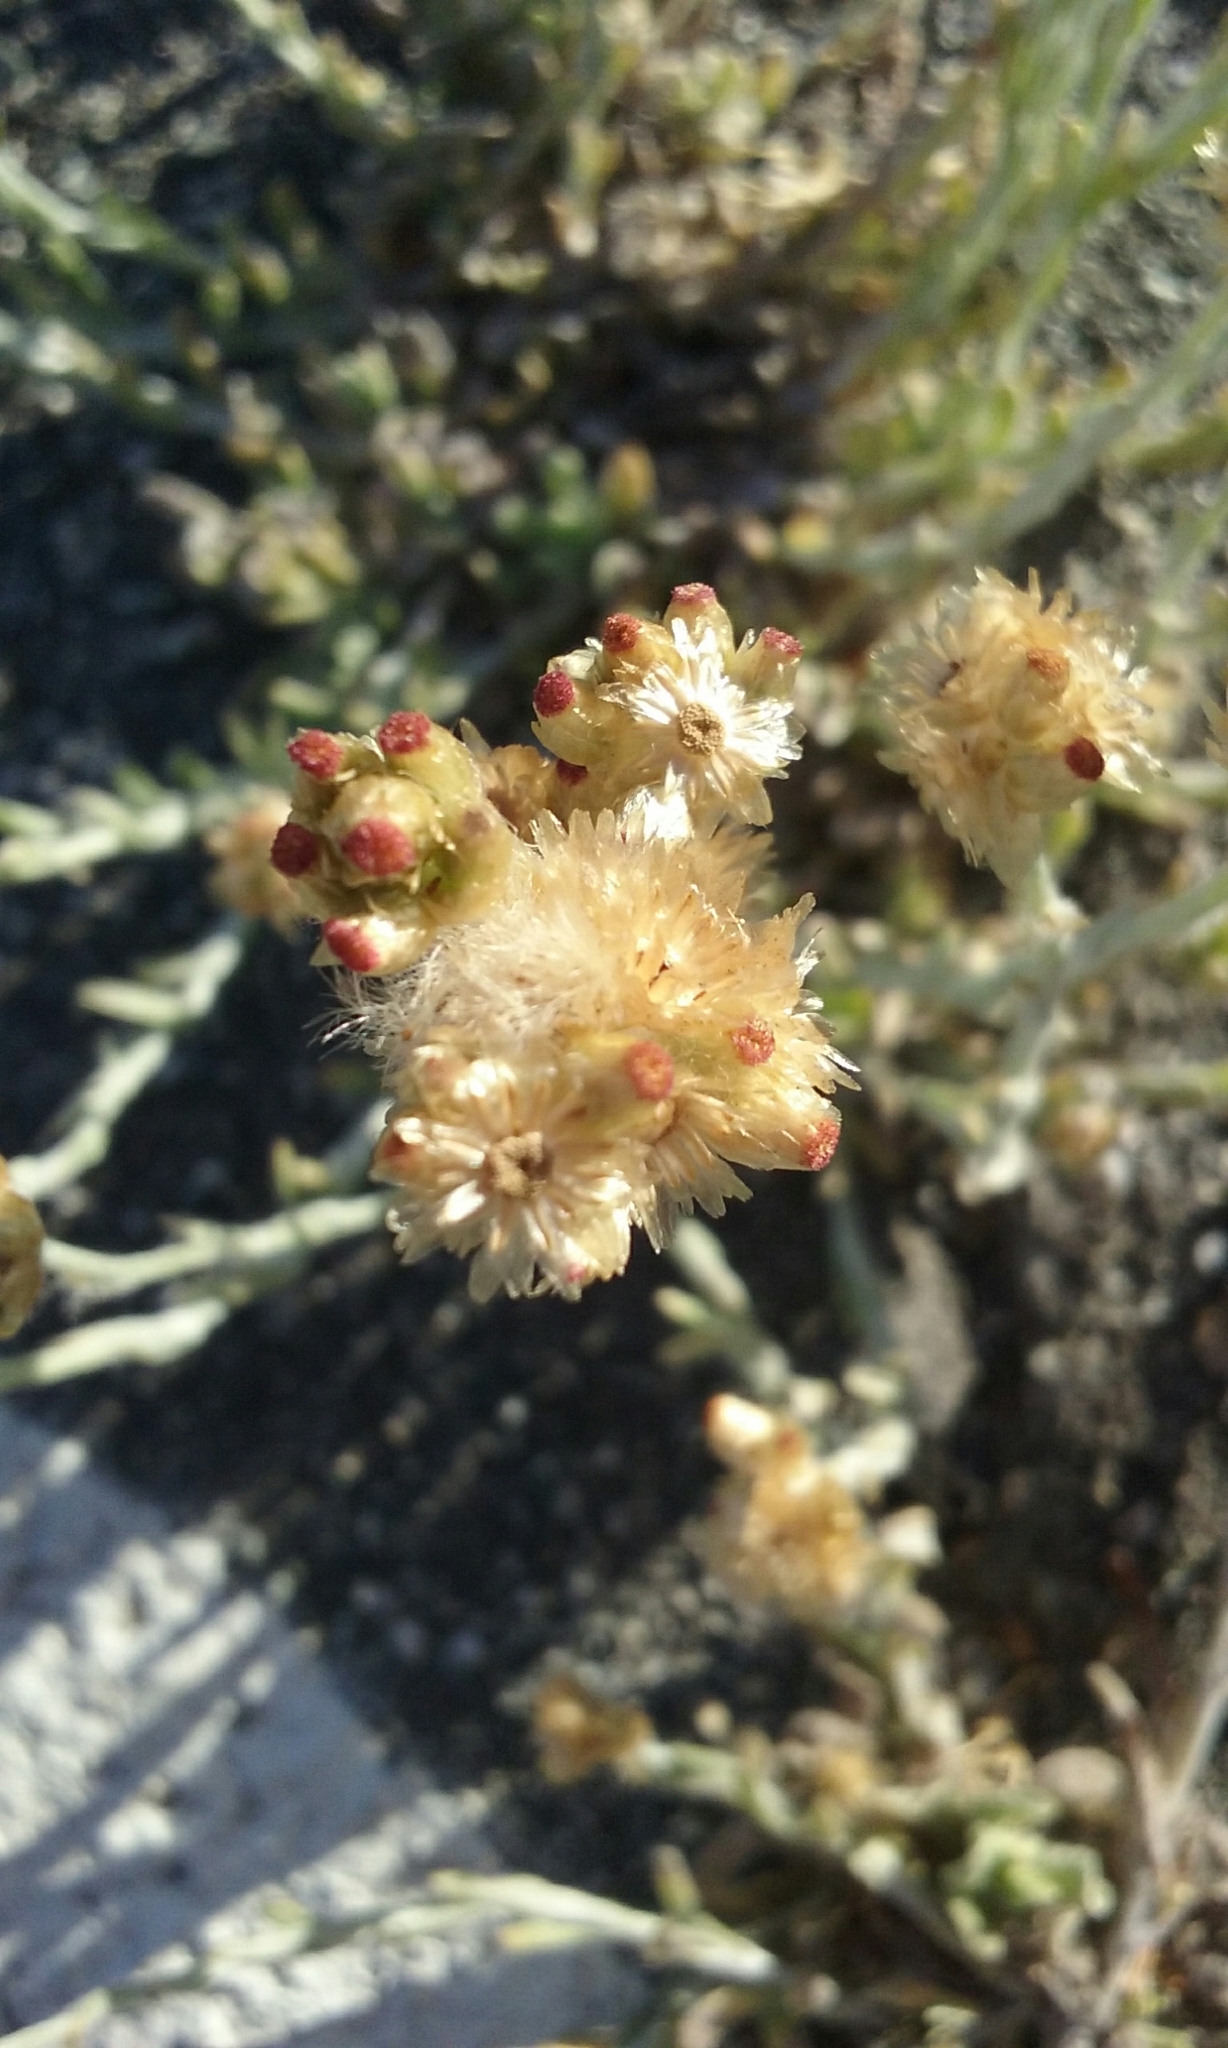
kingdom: Plantae
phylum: Tracheophyta
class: Magnoliopsida
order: Asterales
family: Asteraceae
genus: Helichrysum
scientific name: Helichrysum luteoalbum
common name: Daisy
